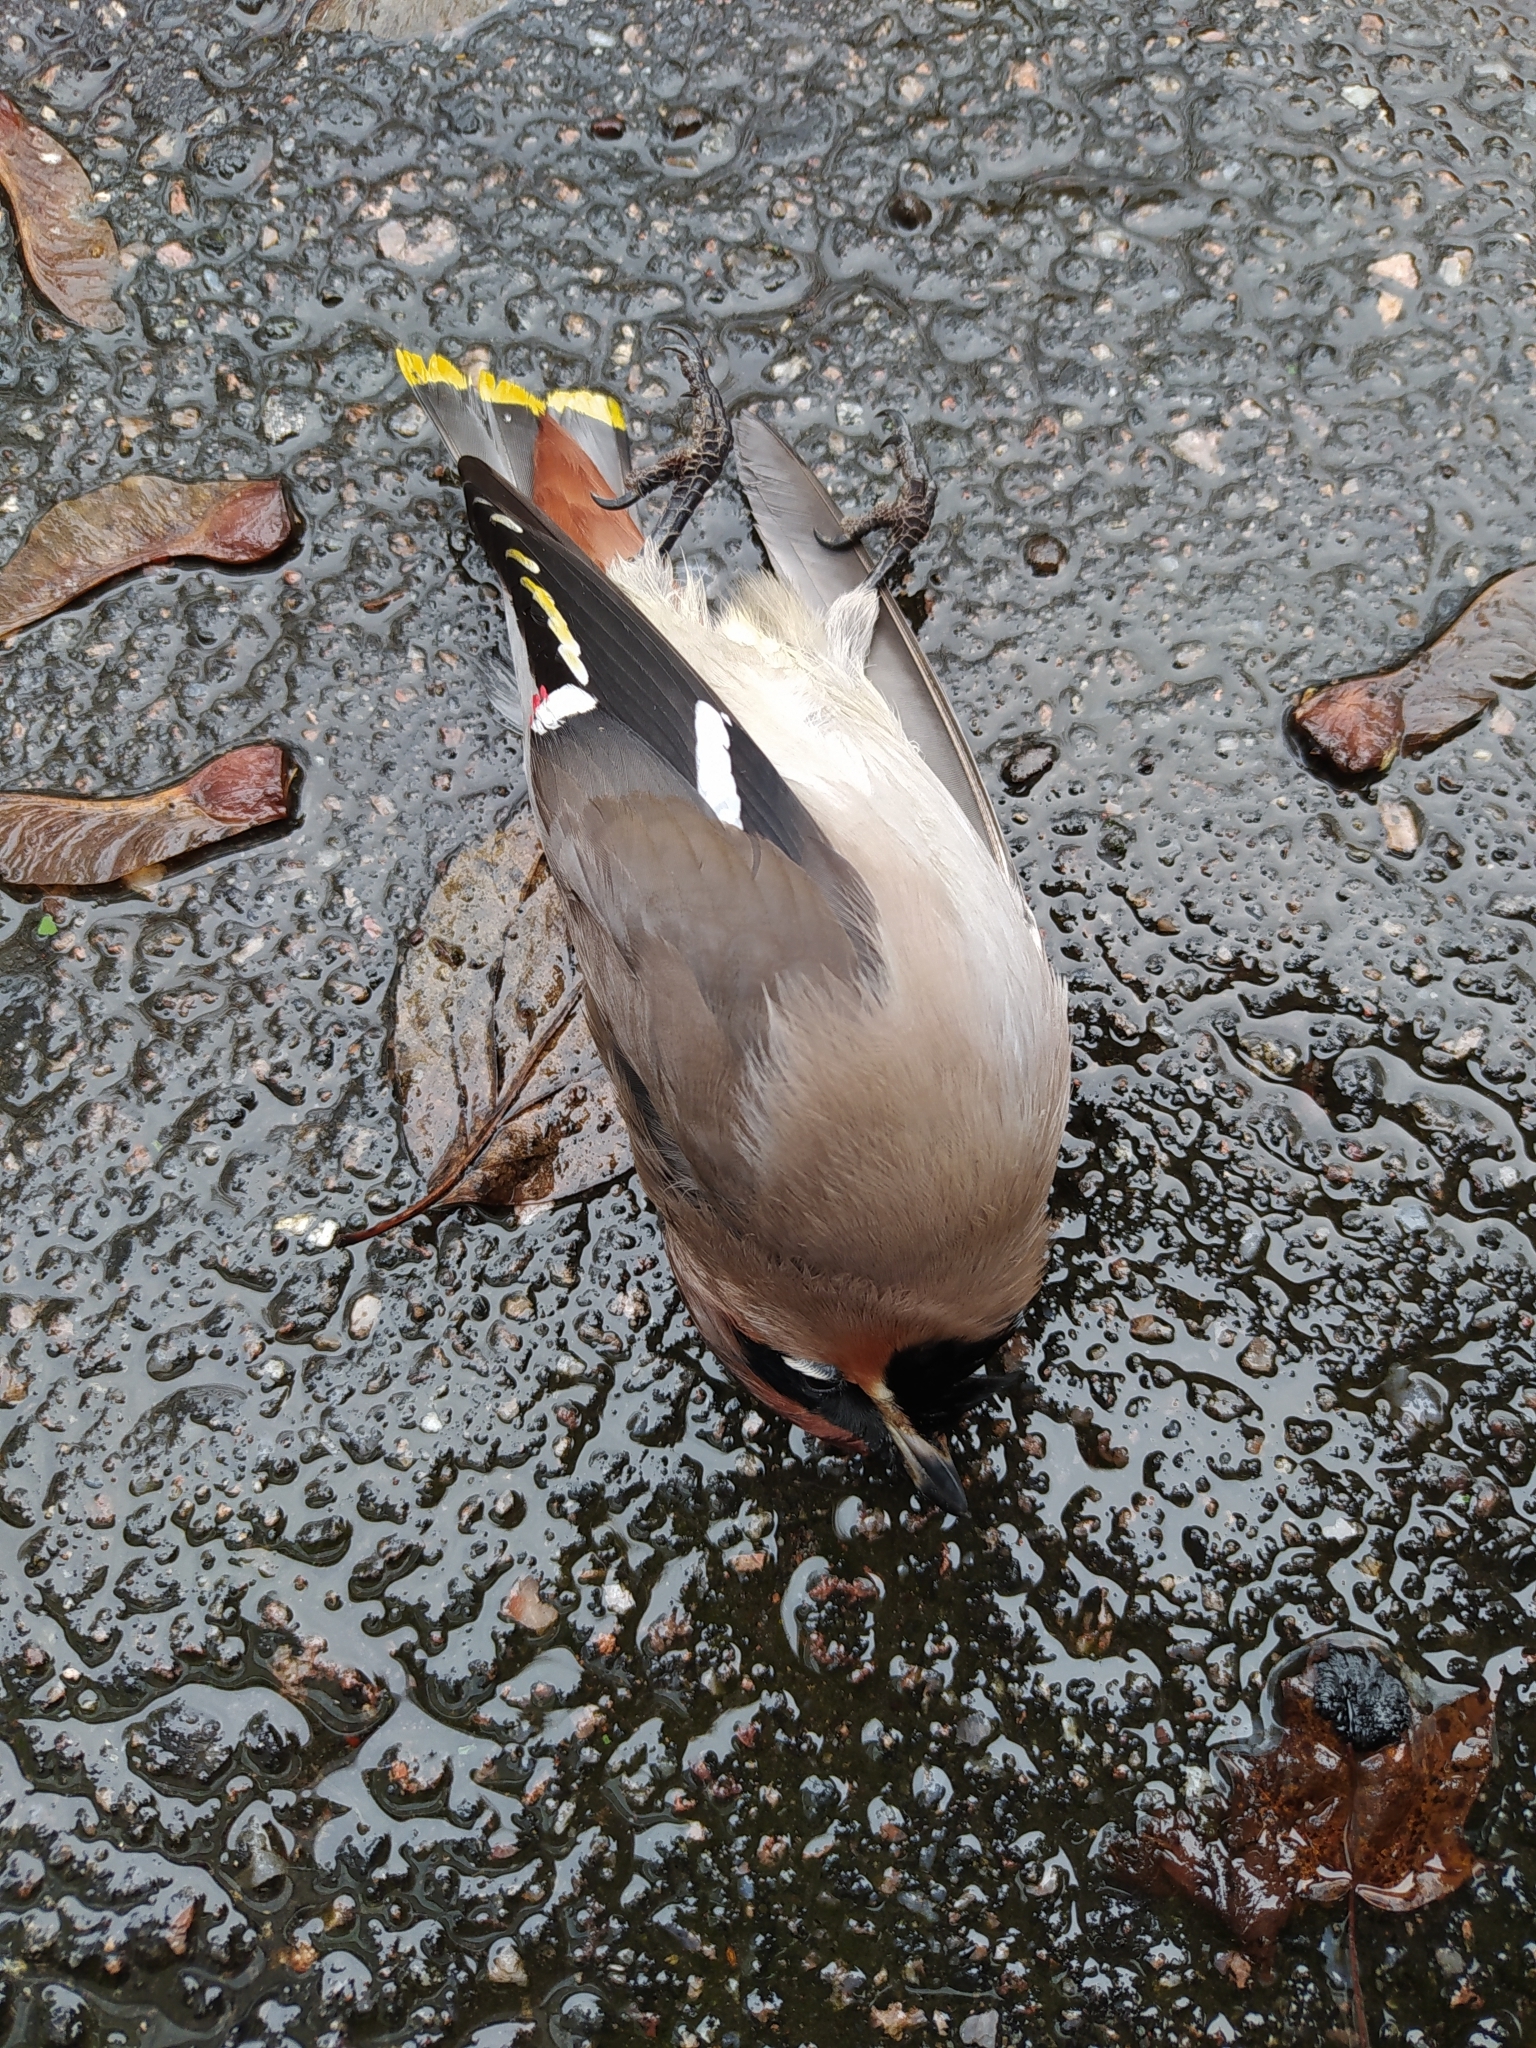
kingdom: Animalia
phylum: Chordata
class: Aves
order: Passeriformes
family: Bombycillidae
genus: Bombycilla
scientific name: Bombycilla garrulus
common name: Bohemian waxwing
